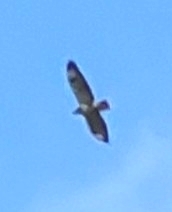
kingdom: Animalia
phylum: Chordata
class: Aves
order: Accipitriformes
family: Accipitridae
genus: Buteo
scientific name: Buteo buteo
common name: Common buzzard
